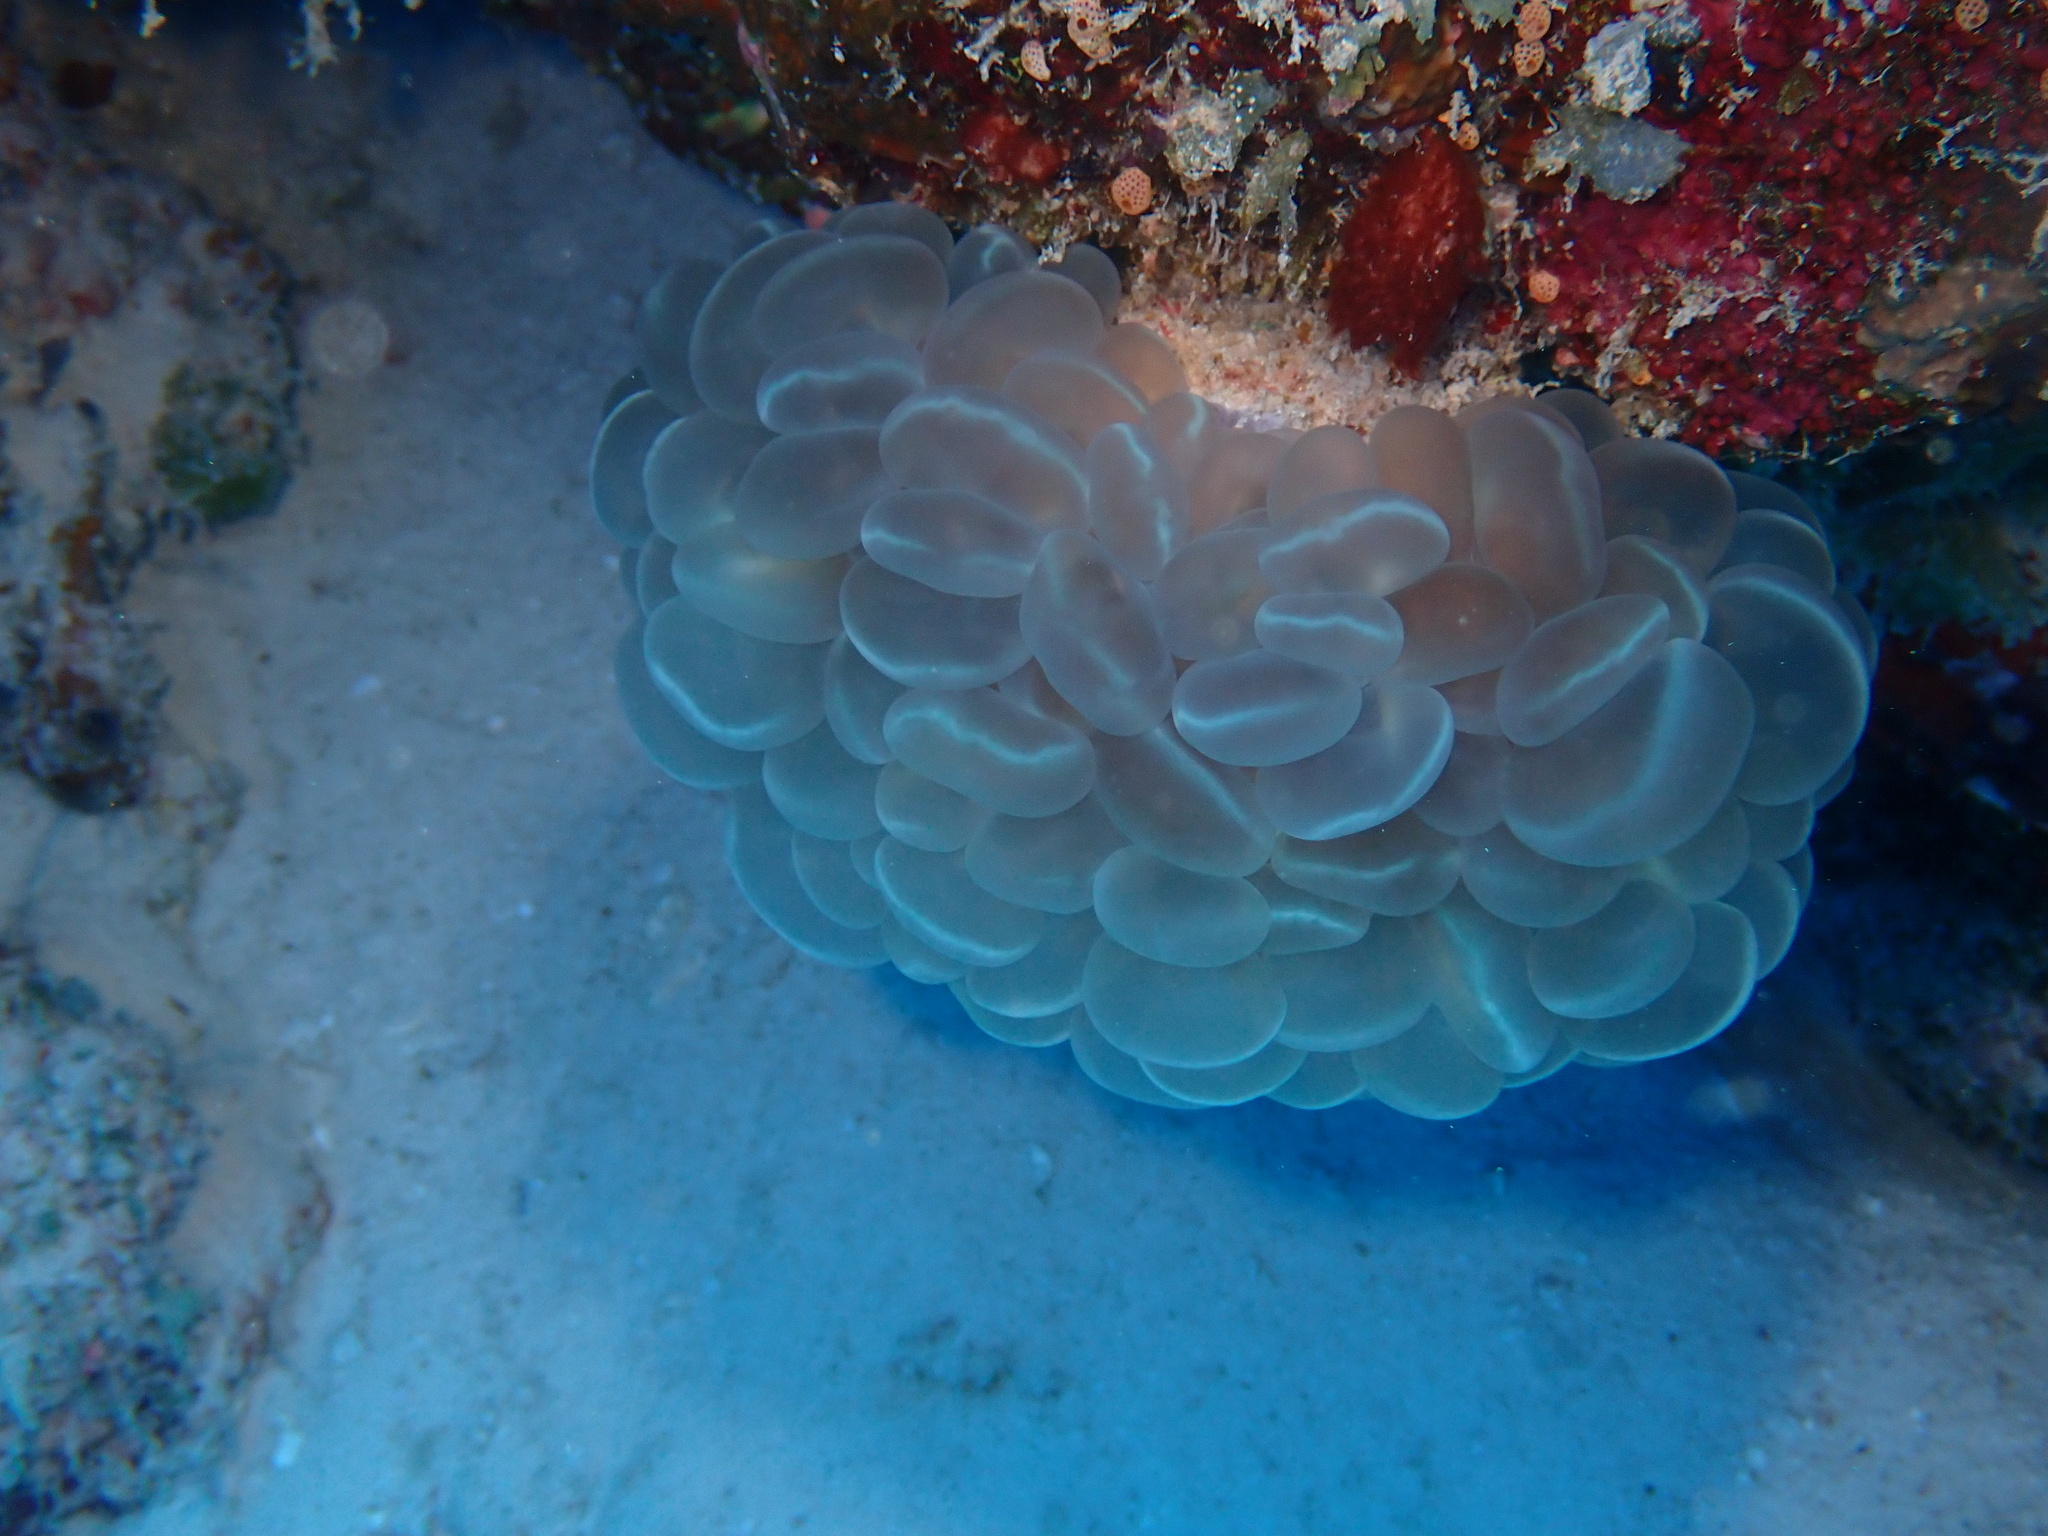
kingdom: Animalia
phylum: Cnidaria
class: Anthozoa
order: Scleractinia
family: Plerogyridae
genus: Plerogyra
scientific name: Plerogyra sinuosa
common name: Bubble coral
